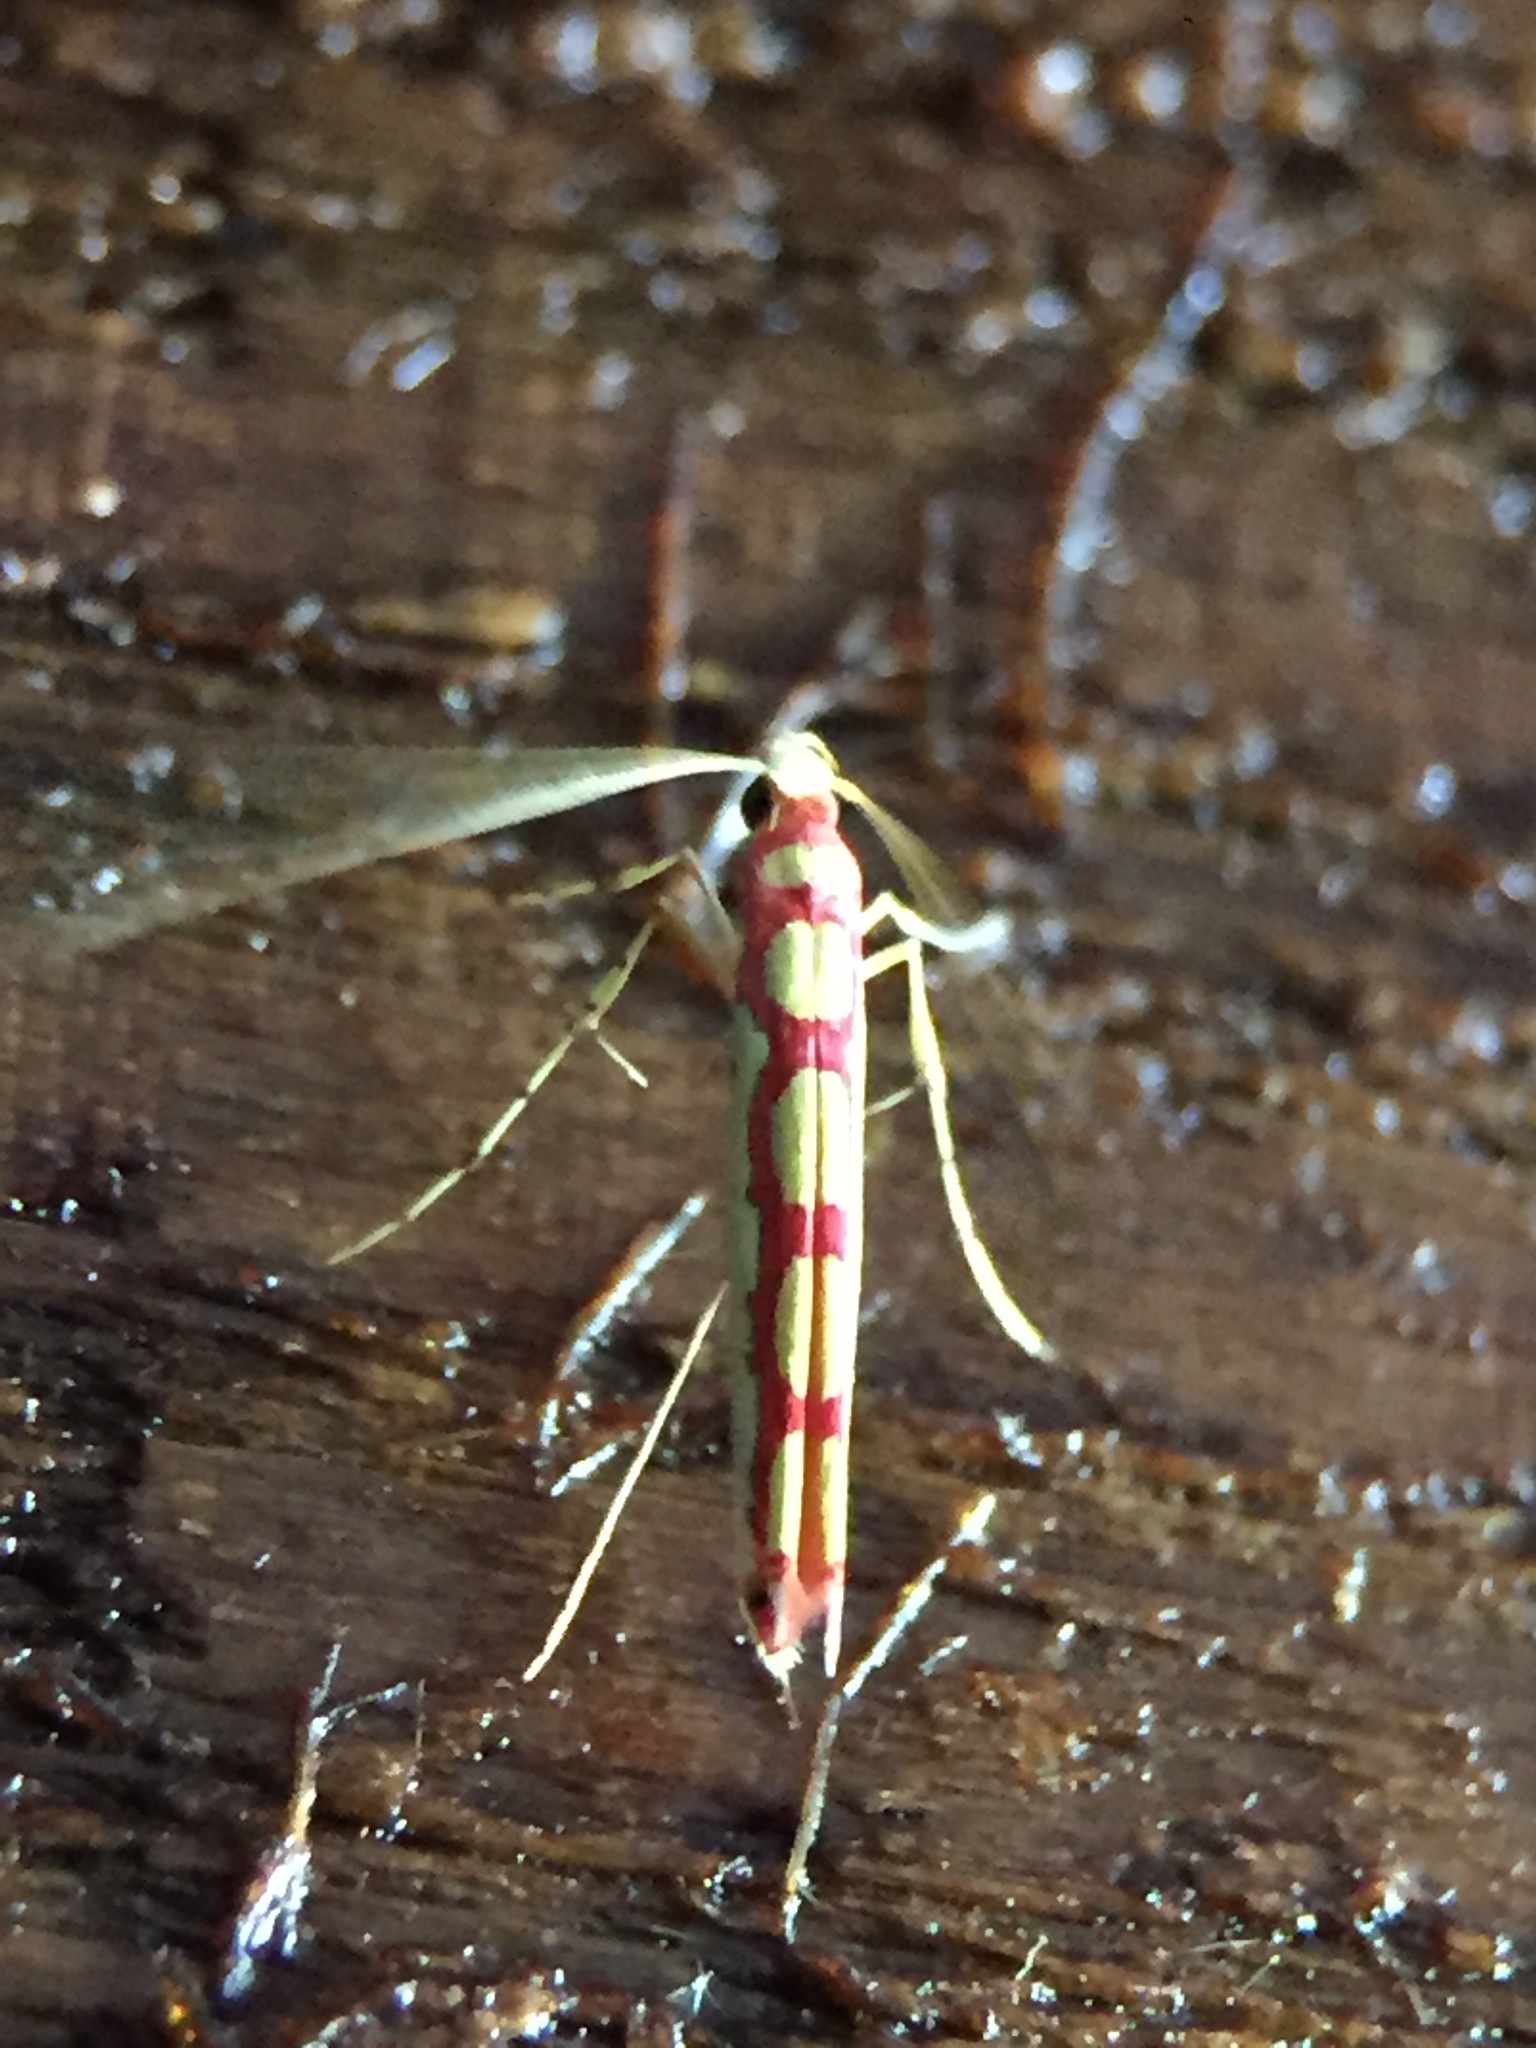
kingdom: Animalia
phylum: Arthropoda
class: Insecta
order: Lepidoptera
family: Gracillariidae
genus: Macarostola
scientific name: Macarostola miniella
